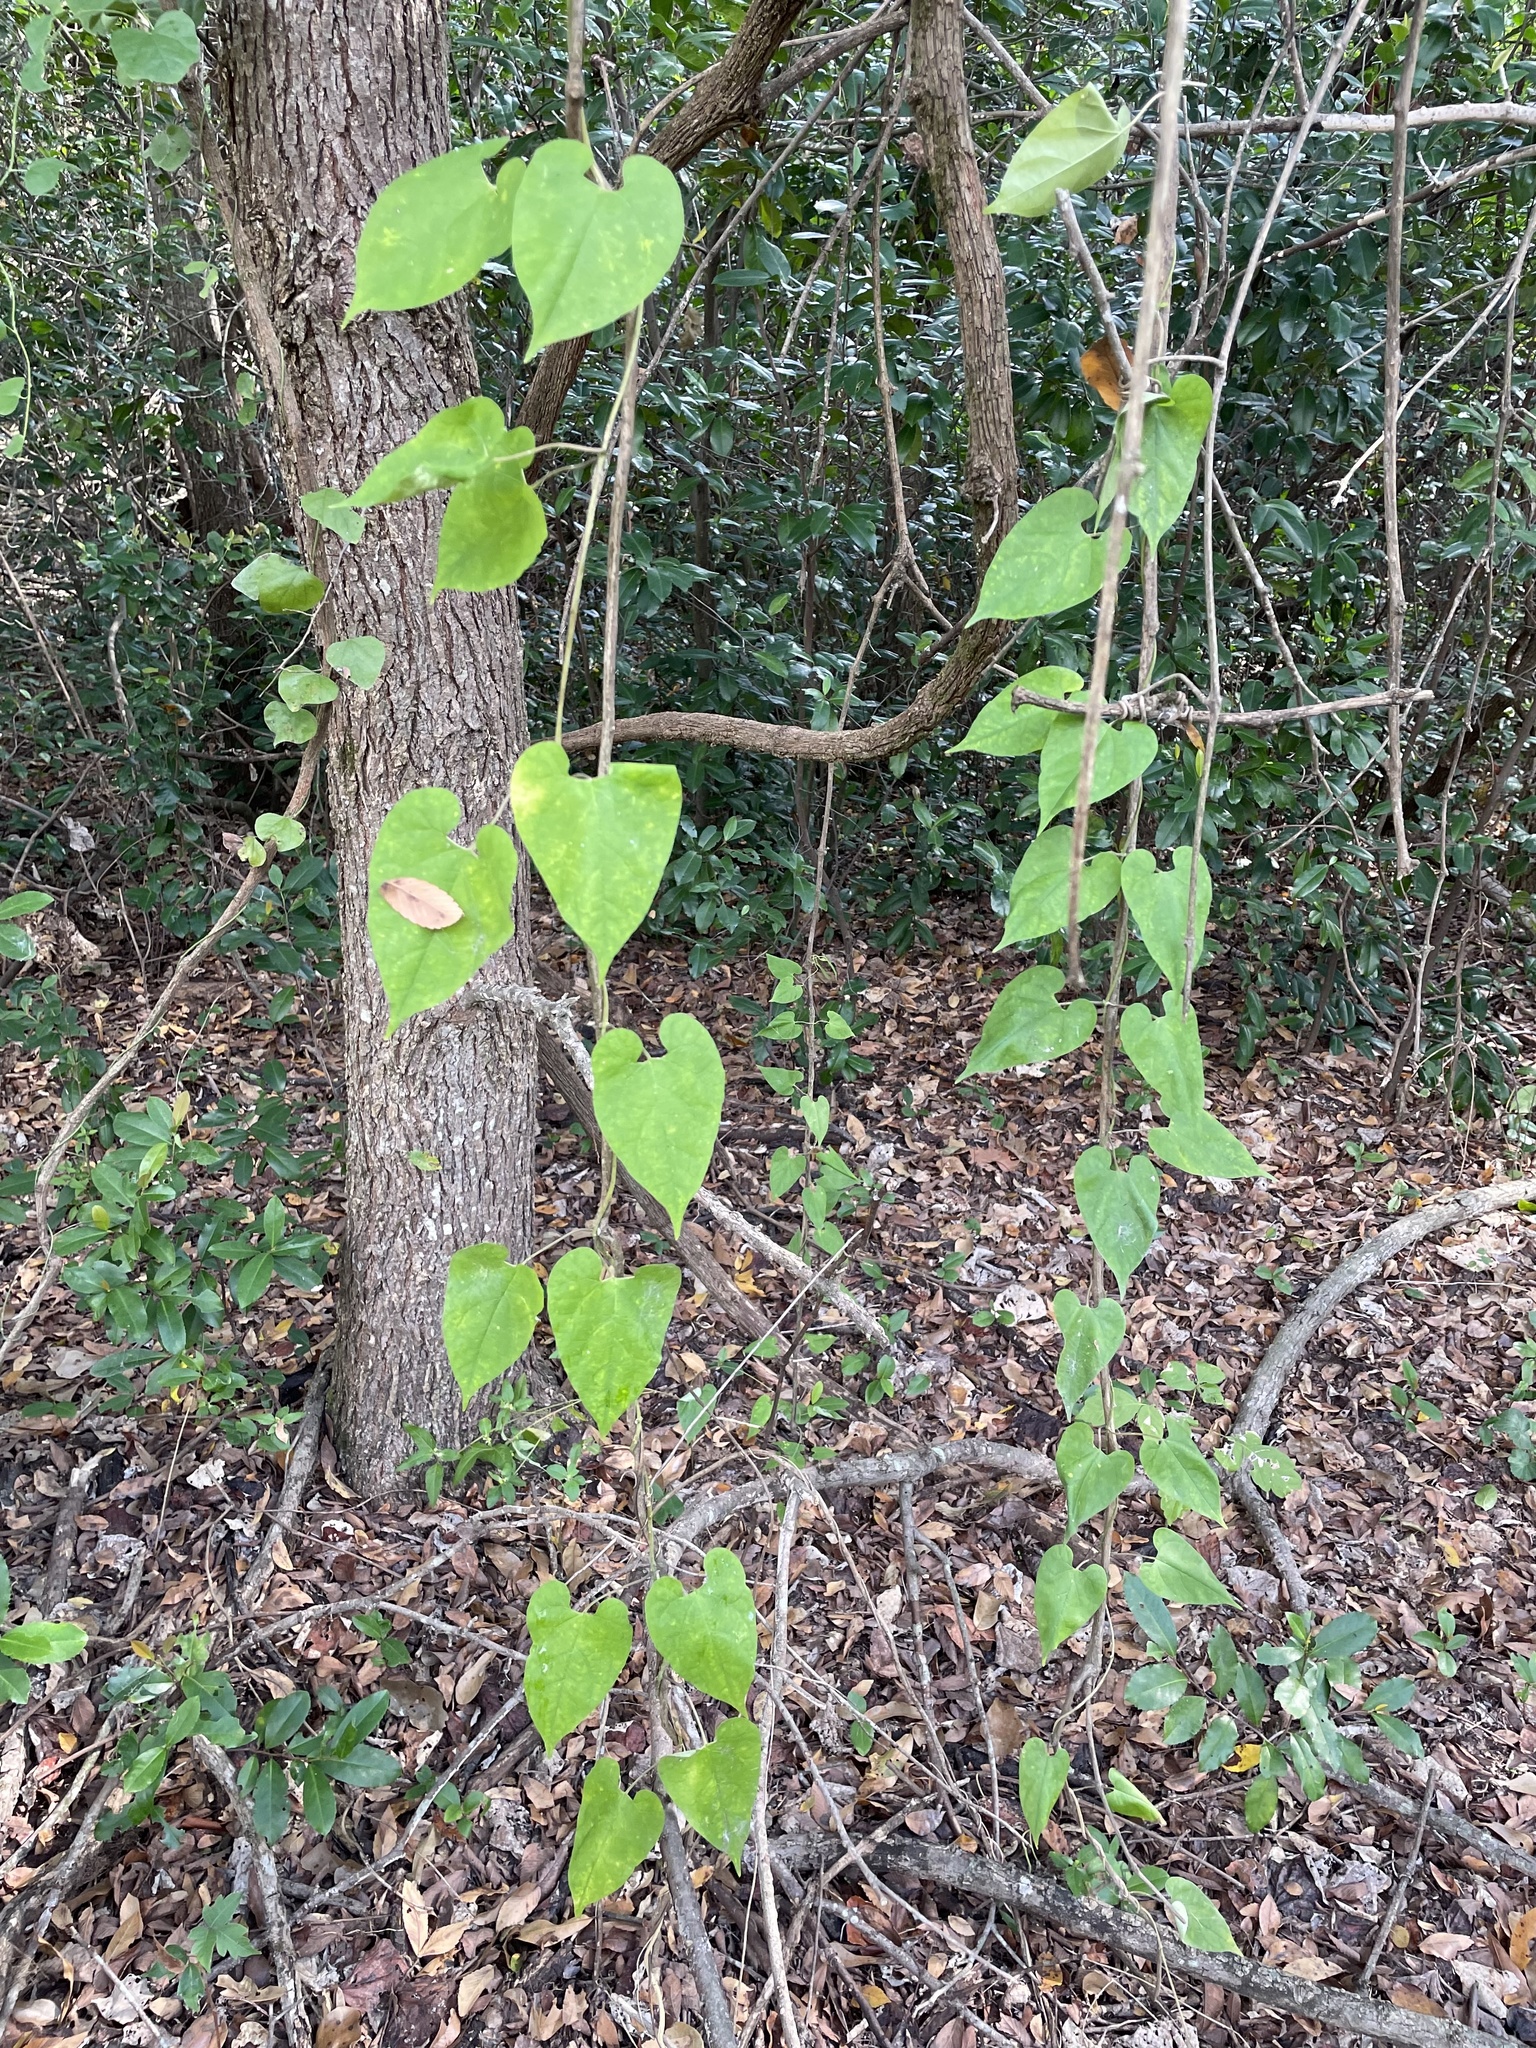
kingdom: Plantae
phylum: Tracheophyta
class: Magnoliopsida
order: Gentianales
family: Apocynaceae
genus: Gonolobus
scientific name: Gonolobus suberosus
